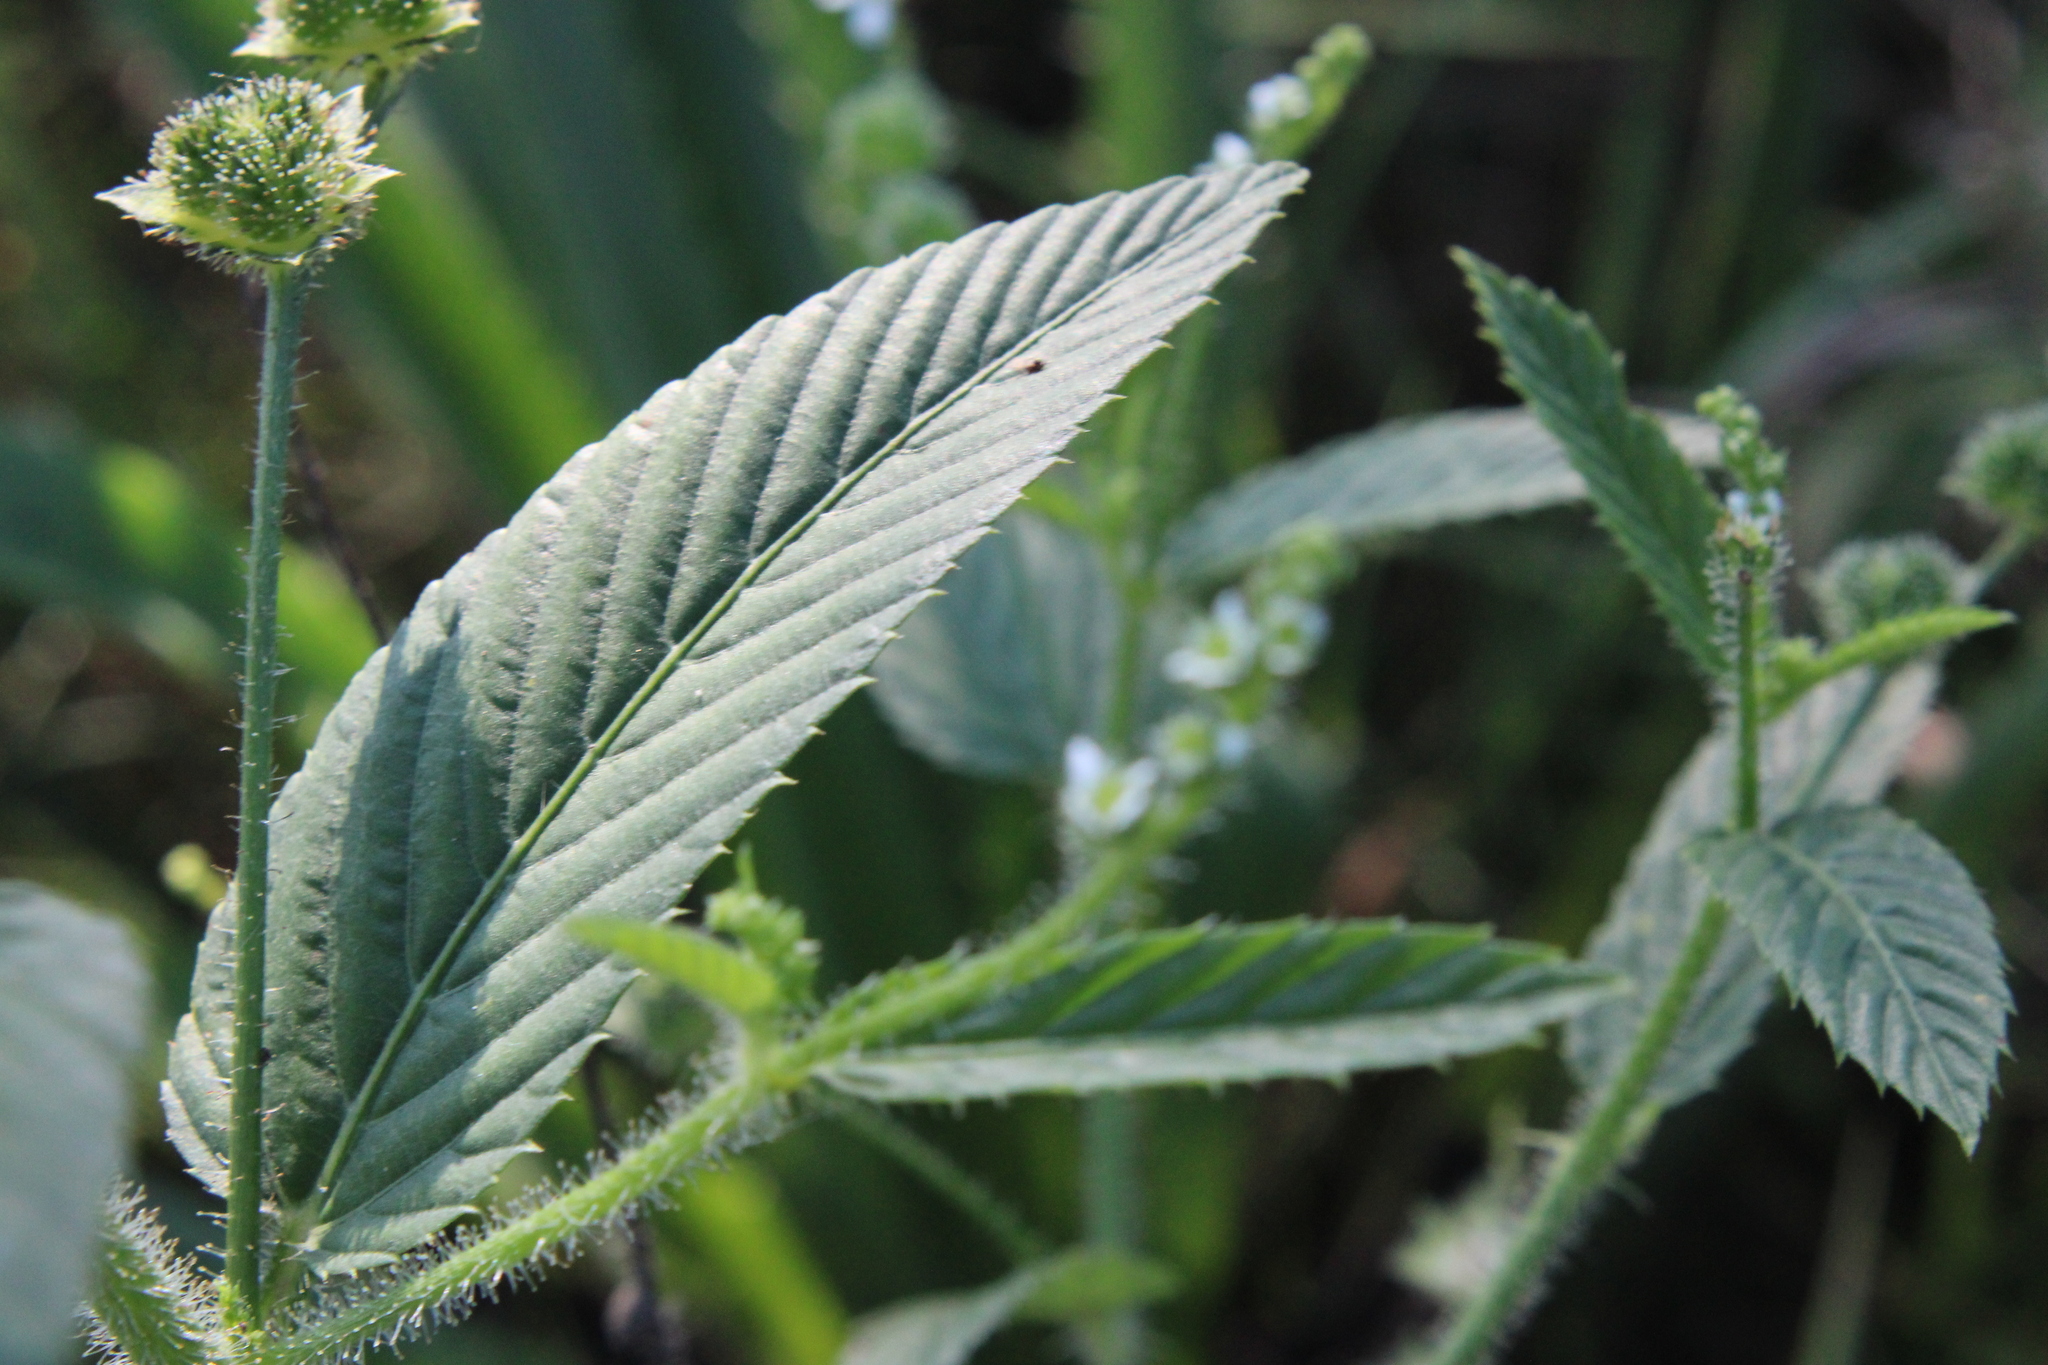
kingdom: Plantae
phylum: Tracheophyta
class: Magnoliopsida
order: Malpighiales
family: Euphorbiaceae
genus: Caperonia
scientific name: Caperonia palustris
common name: Sacatrapo
